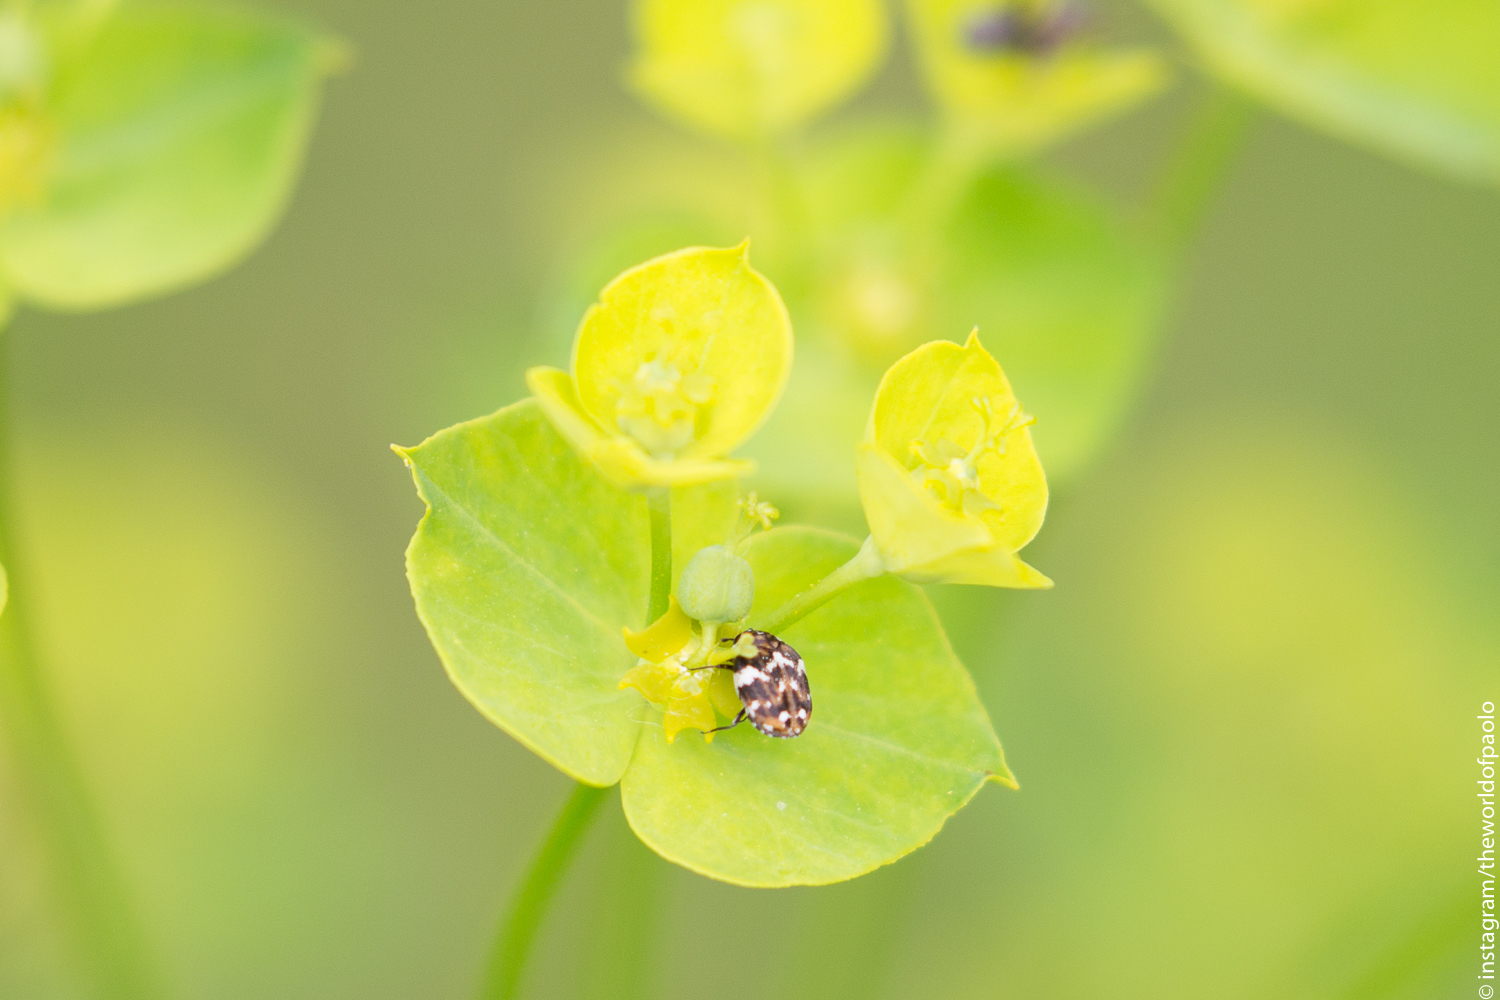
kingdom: Animalia
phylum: Arthropoda
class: Insecta
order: Coleoptera
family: Dermestidae
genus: Anthrenus
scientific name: Anthrenus angustefasciatus
